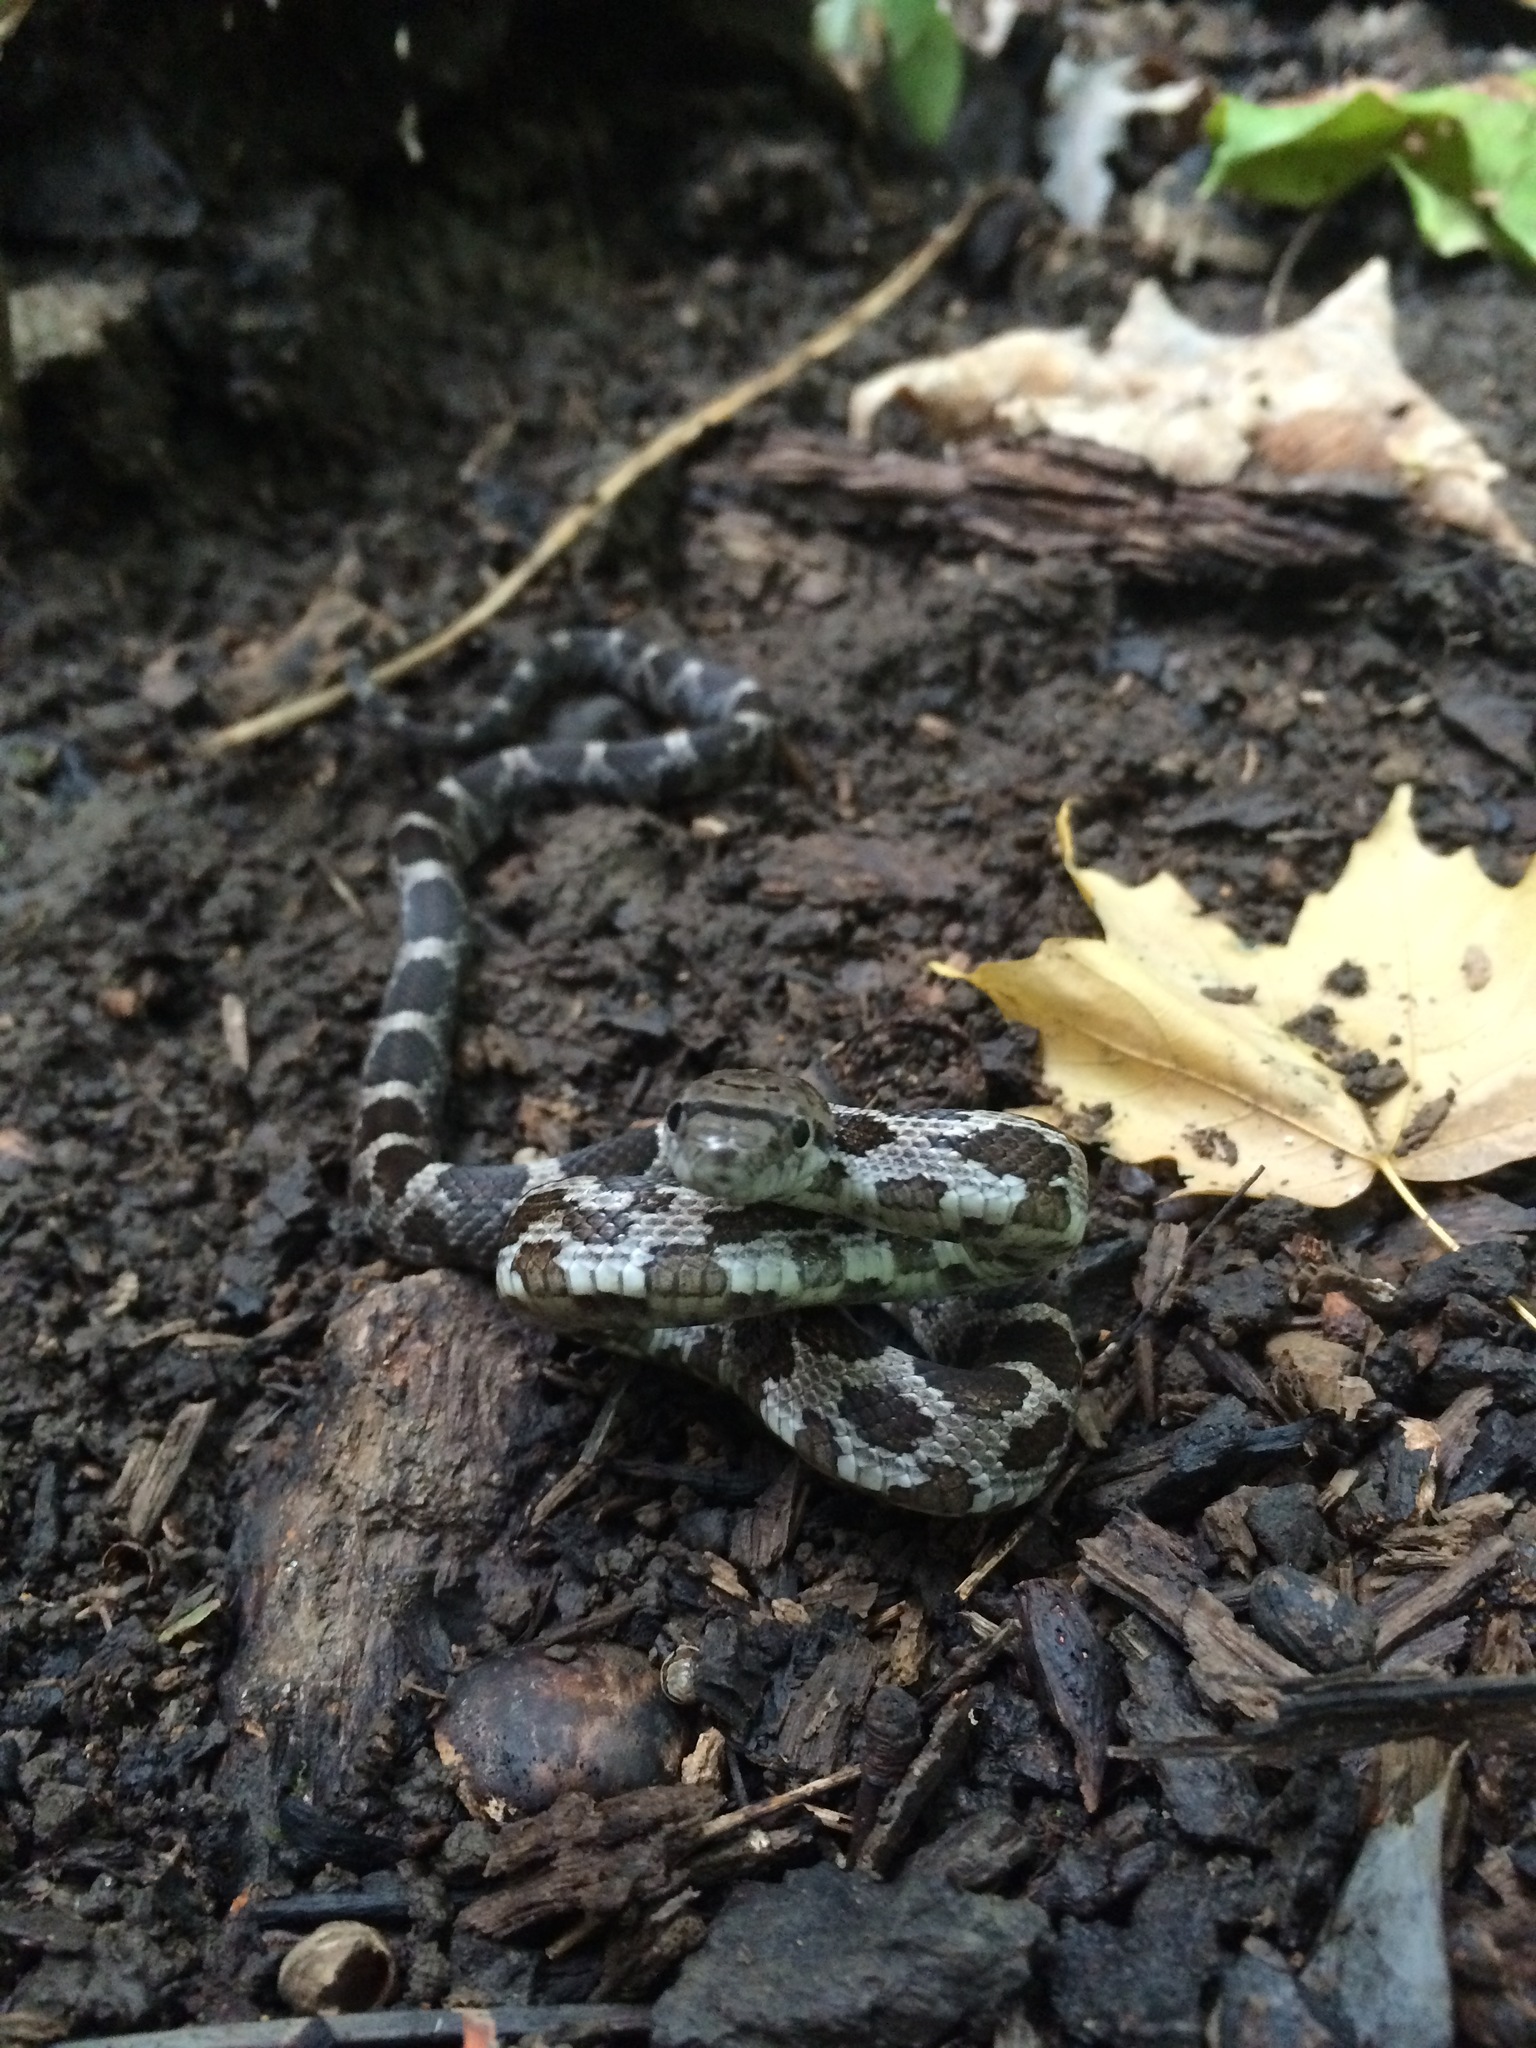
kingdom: Animalia
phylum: Chordata
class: Squamata
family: Colubridae
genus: Pantherophis
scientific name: Pantherophis spiloides
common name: Gray rat snake
